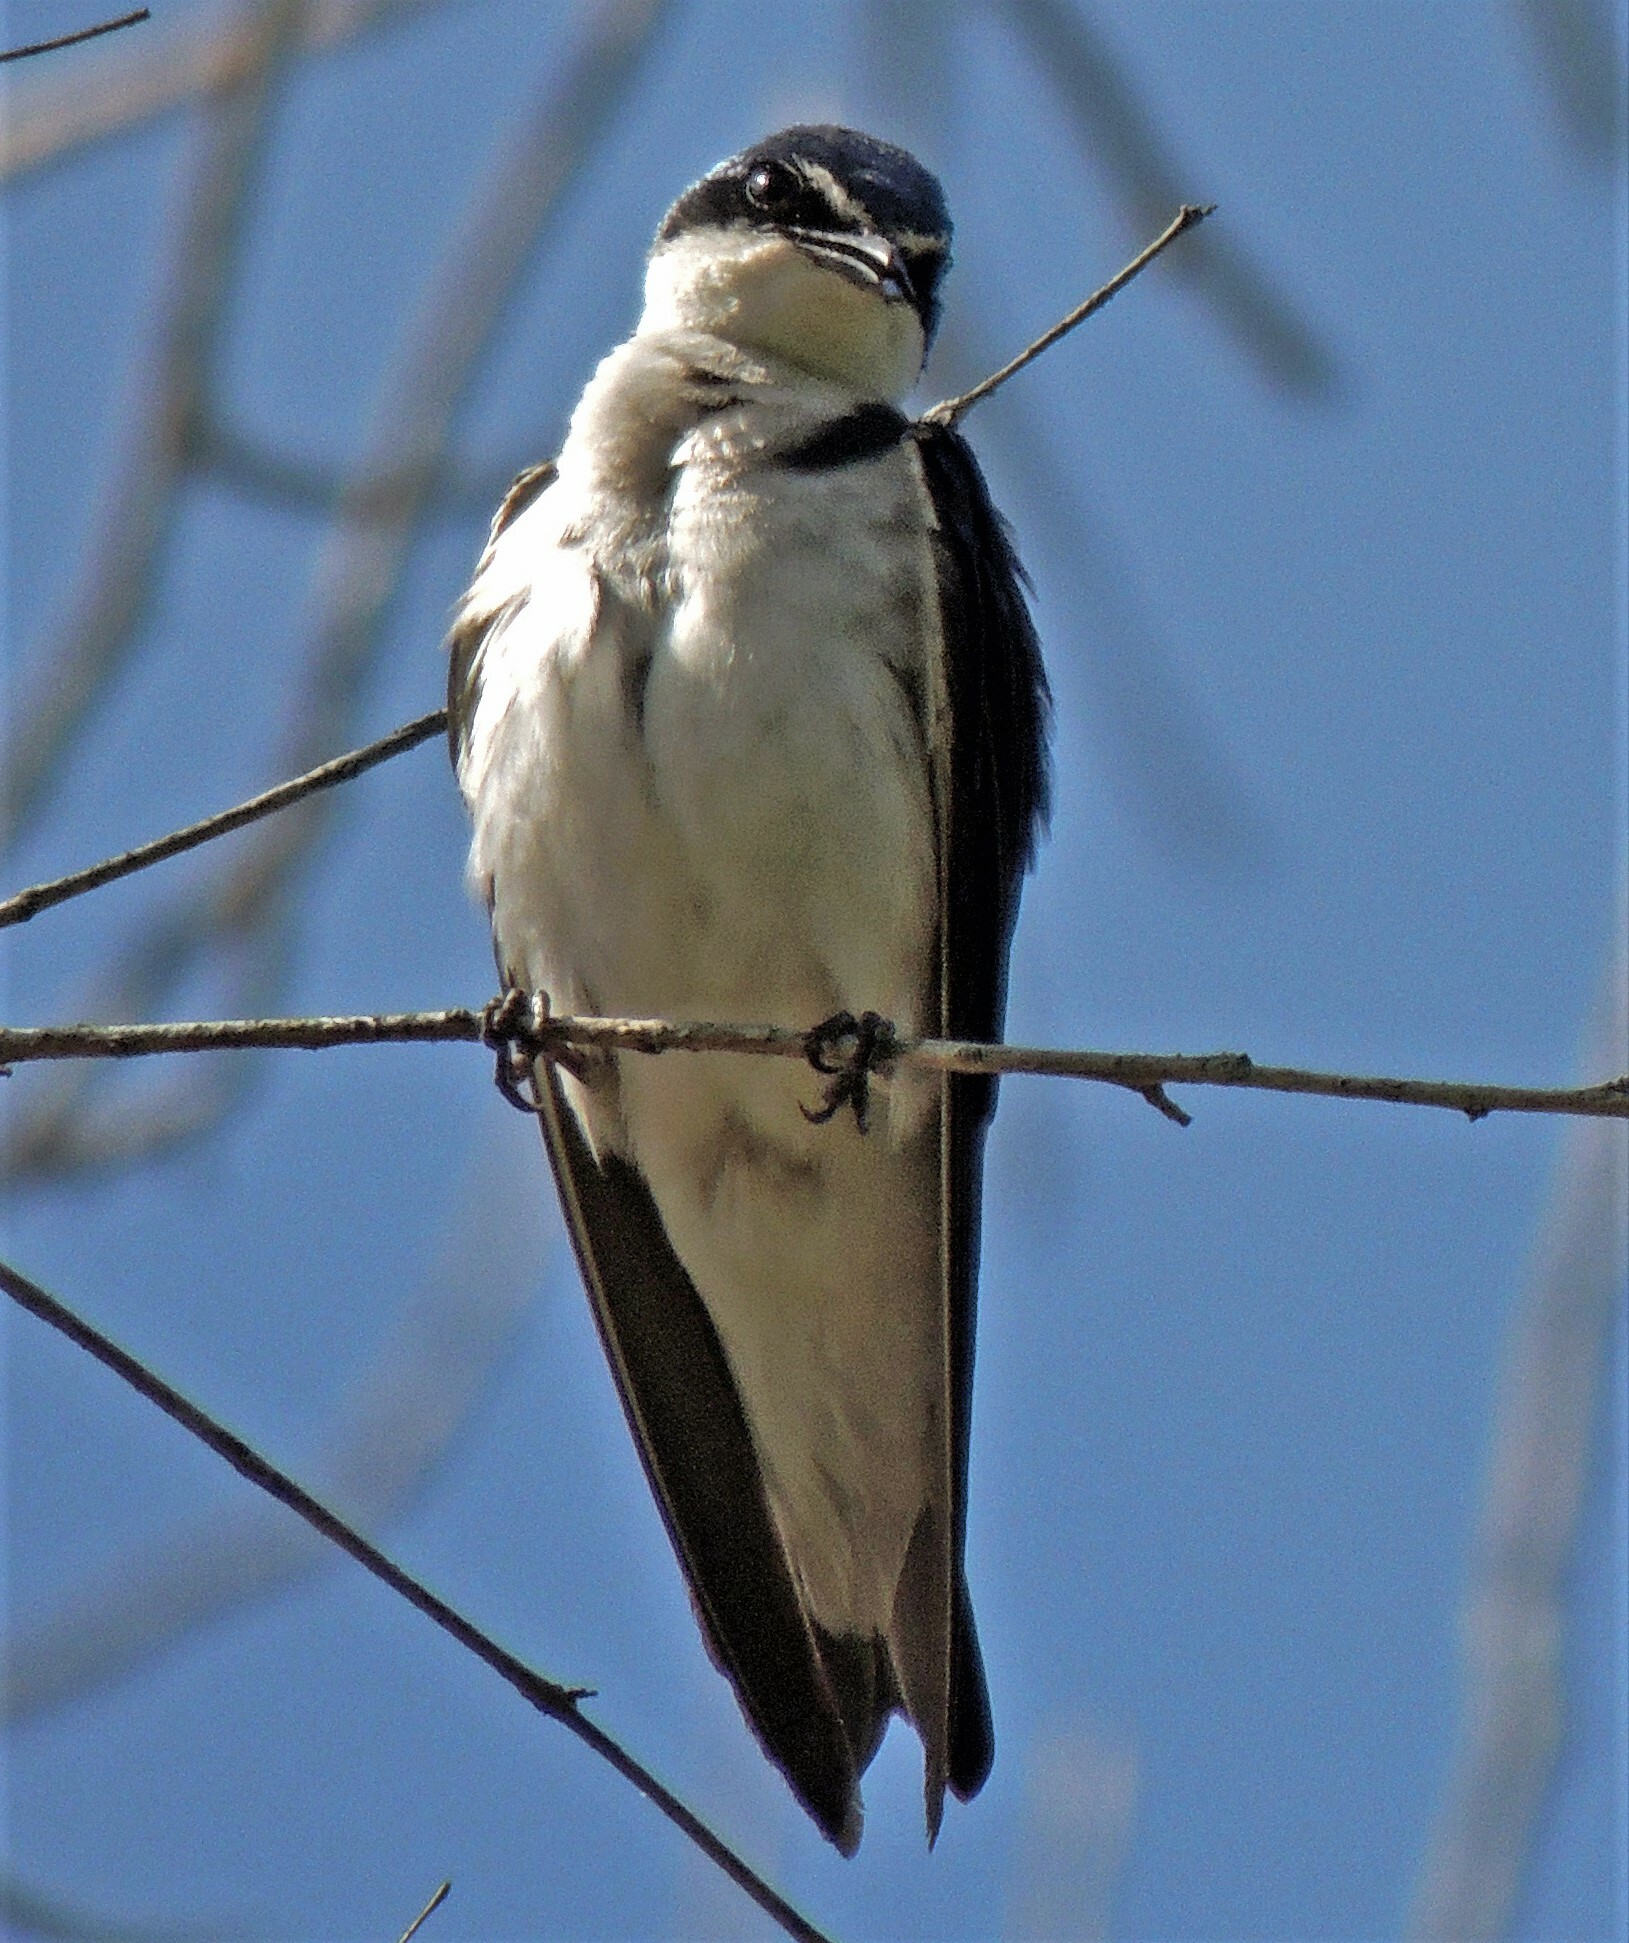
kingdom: Animalia
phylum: Chordata
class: Aves
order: Passeriformes
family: Hirundinidae
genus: Tachycineta
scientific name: Tachycineta leucorrhoa
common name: White-rumped swallow
